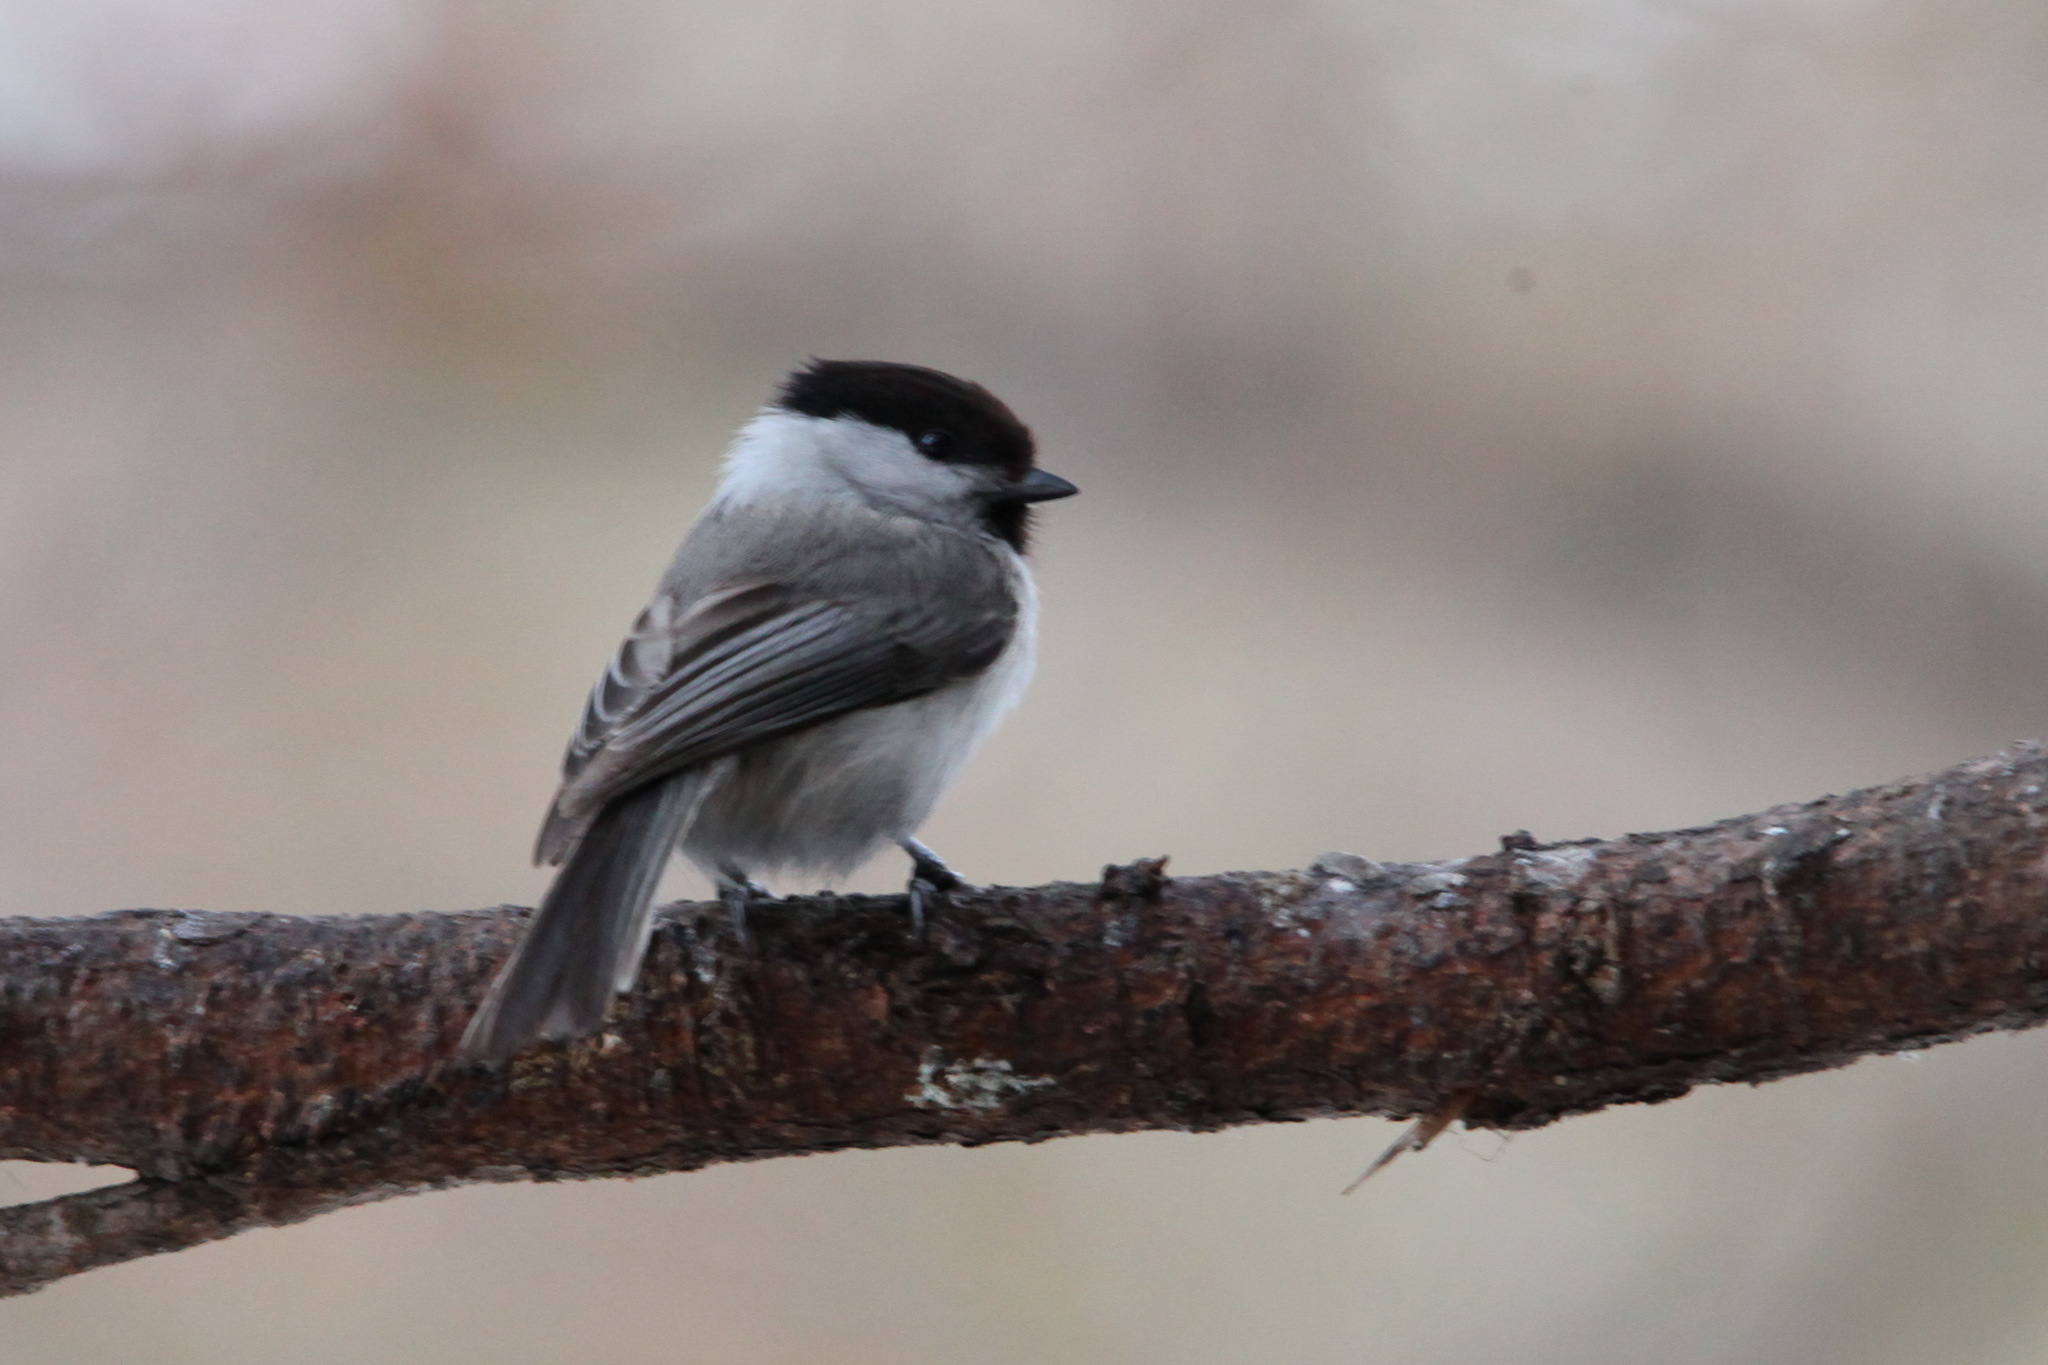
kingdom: Animalia
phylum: Chordata
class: Aves
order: Passeriformes
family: Paridae
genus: Poecile
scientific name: Poecile montanus
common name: Willow tit
